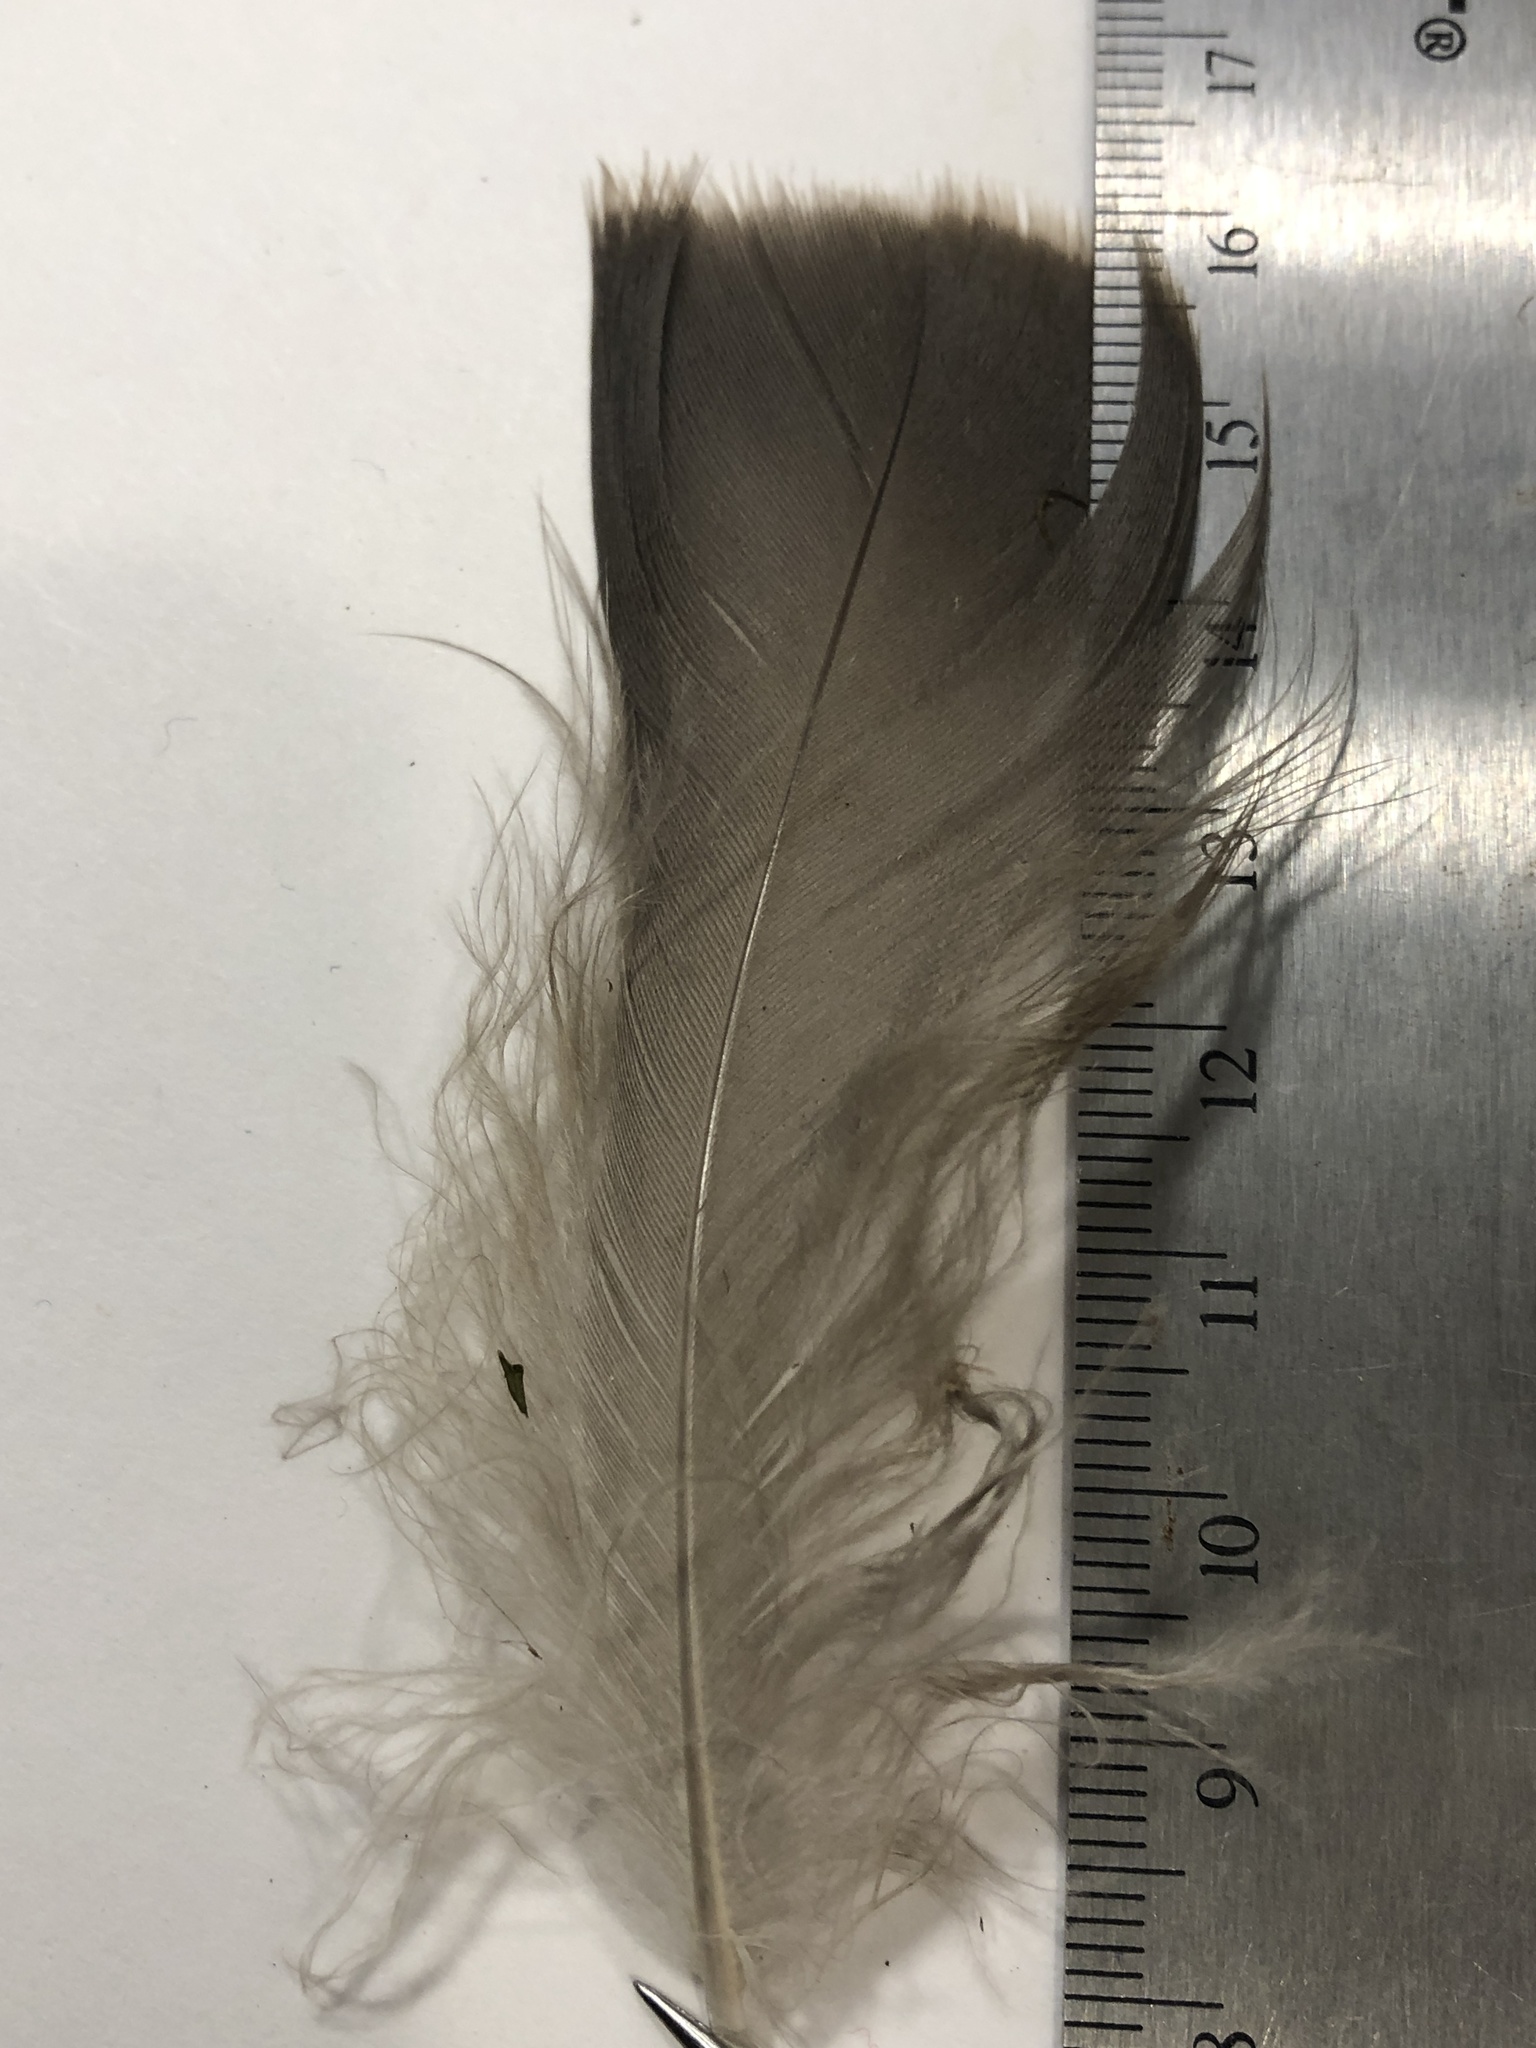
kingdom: Animalia
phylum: Chordata
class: Aves
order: Anseriformes
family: Anatidae
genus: Branta
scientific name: Branta canadensis
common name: Canada goose
